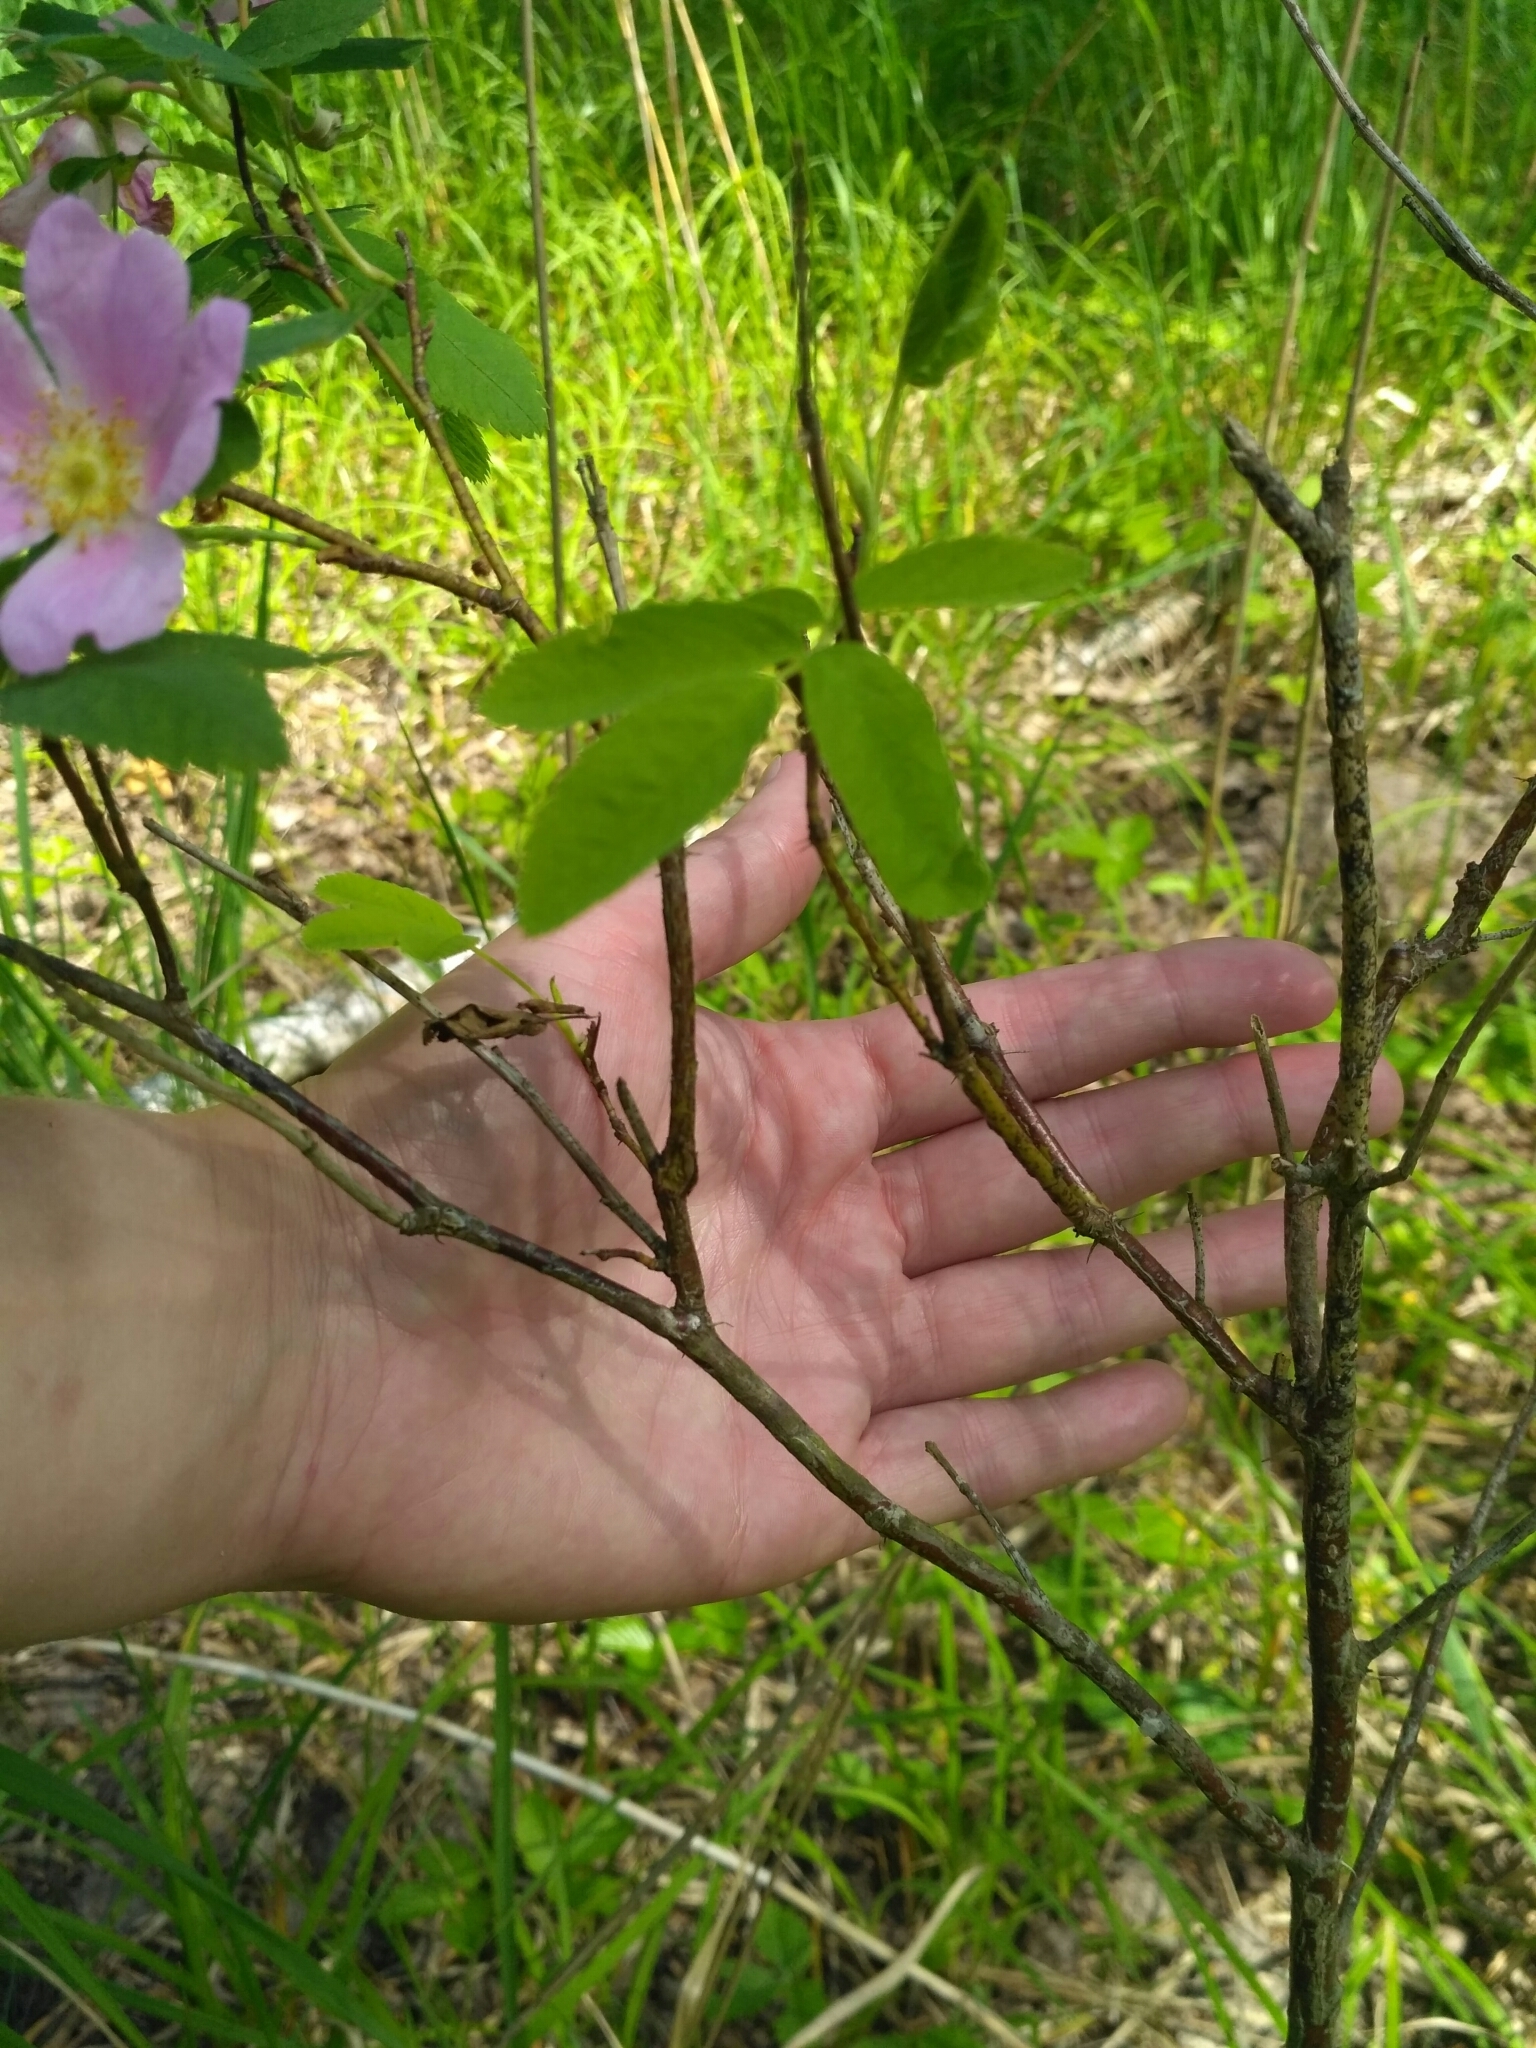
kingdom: Plantae
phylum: Tracheophyta
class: Magnoliopsida
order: Rosales
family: Rosaceae
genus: Rosa
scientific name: Rosa
